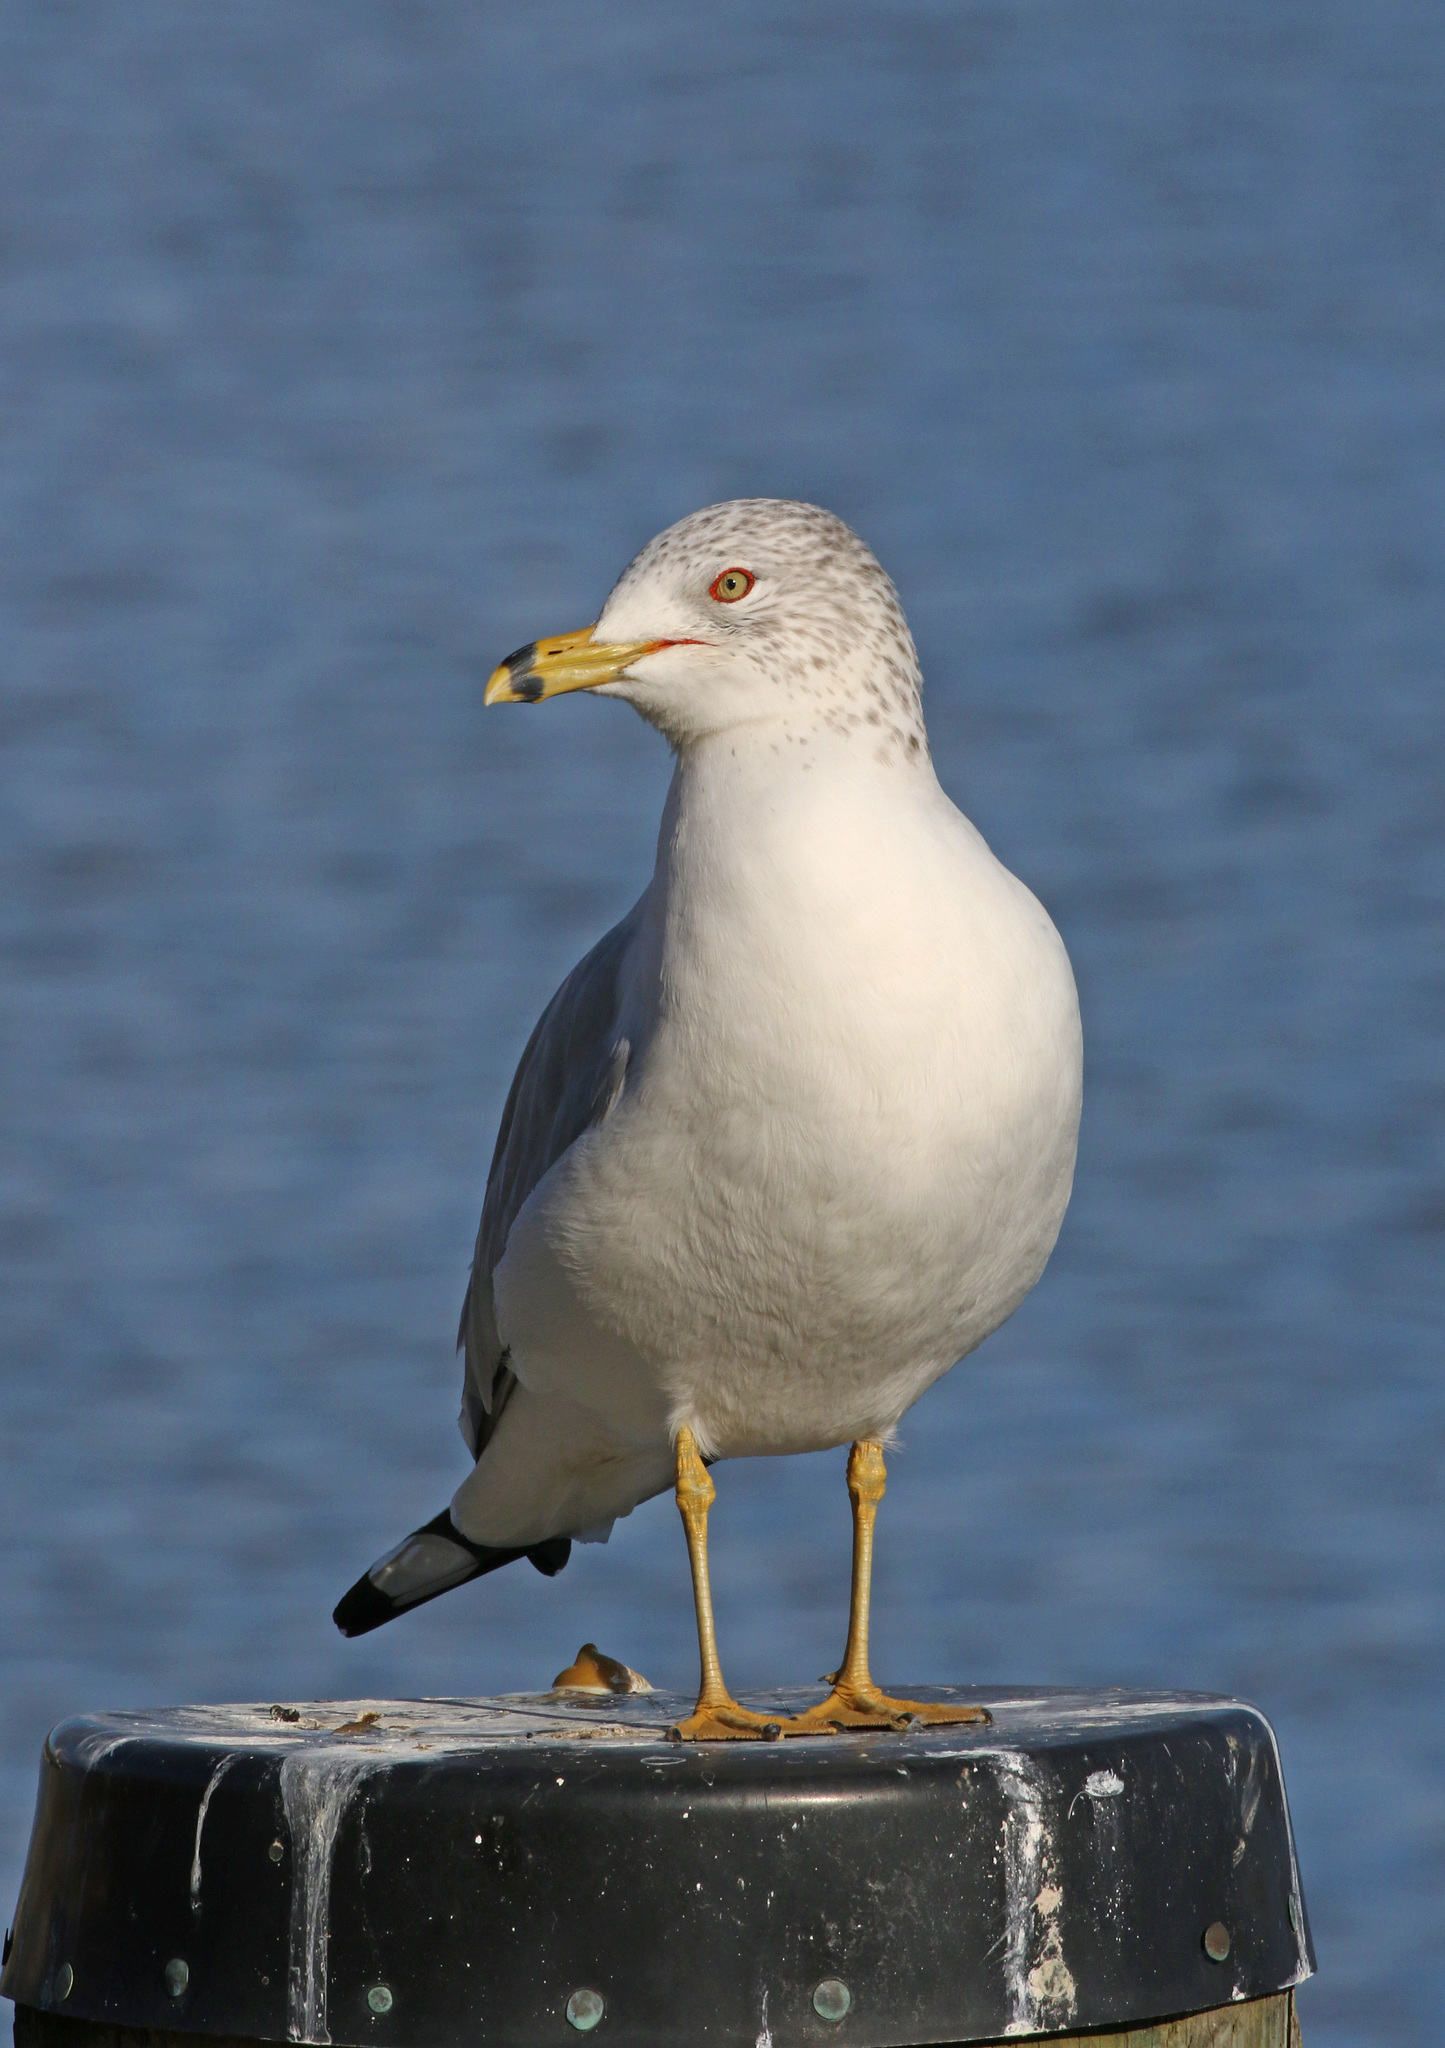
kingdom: Animalia
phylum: Chordata
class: Aves
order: Charadriiformes
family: Laridae
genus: Larus
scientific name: Larus delawarensis
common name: Ring-billed gull
